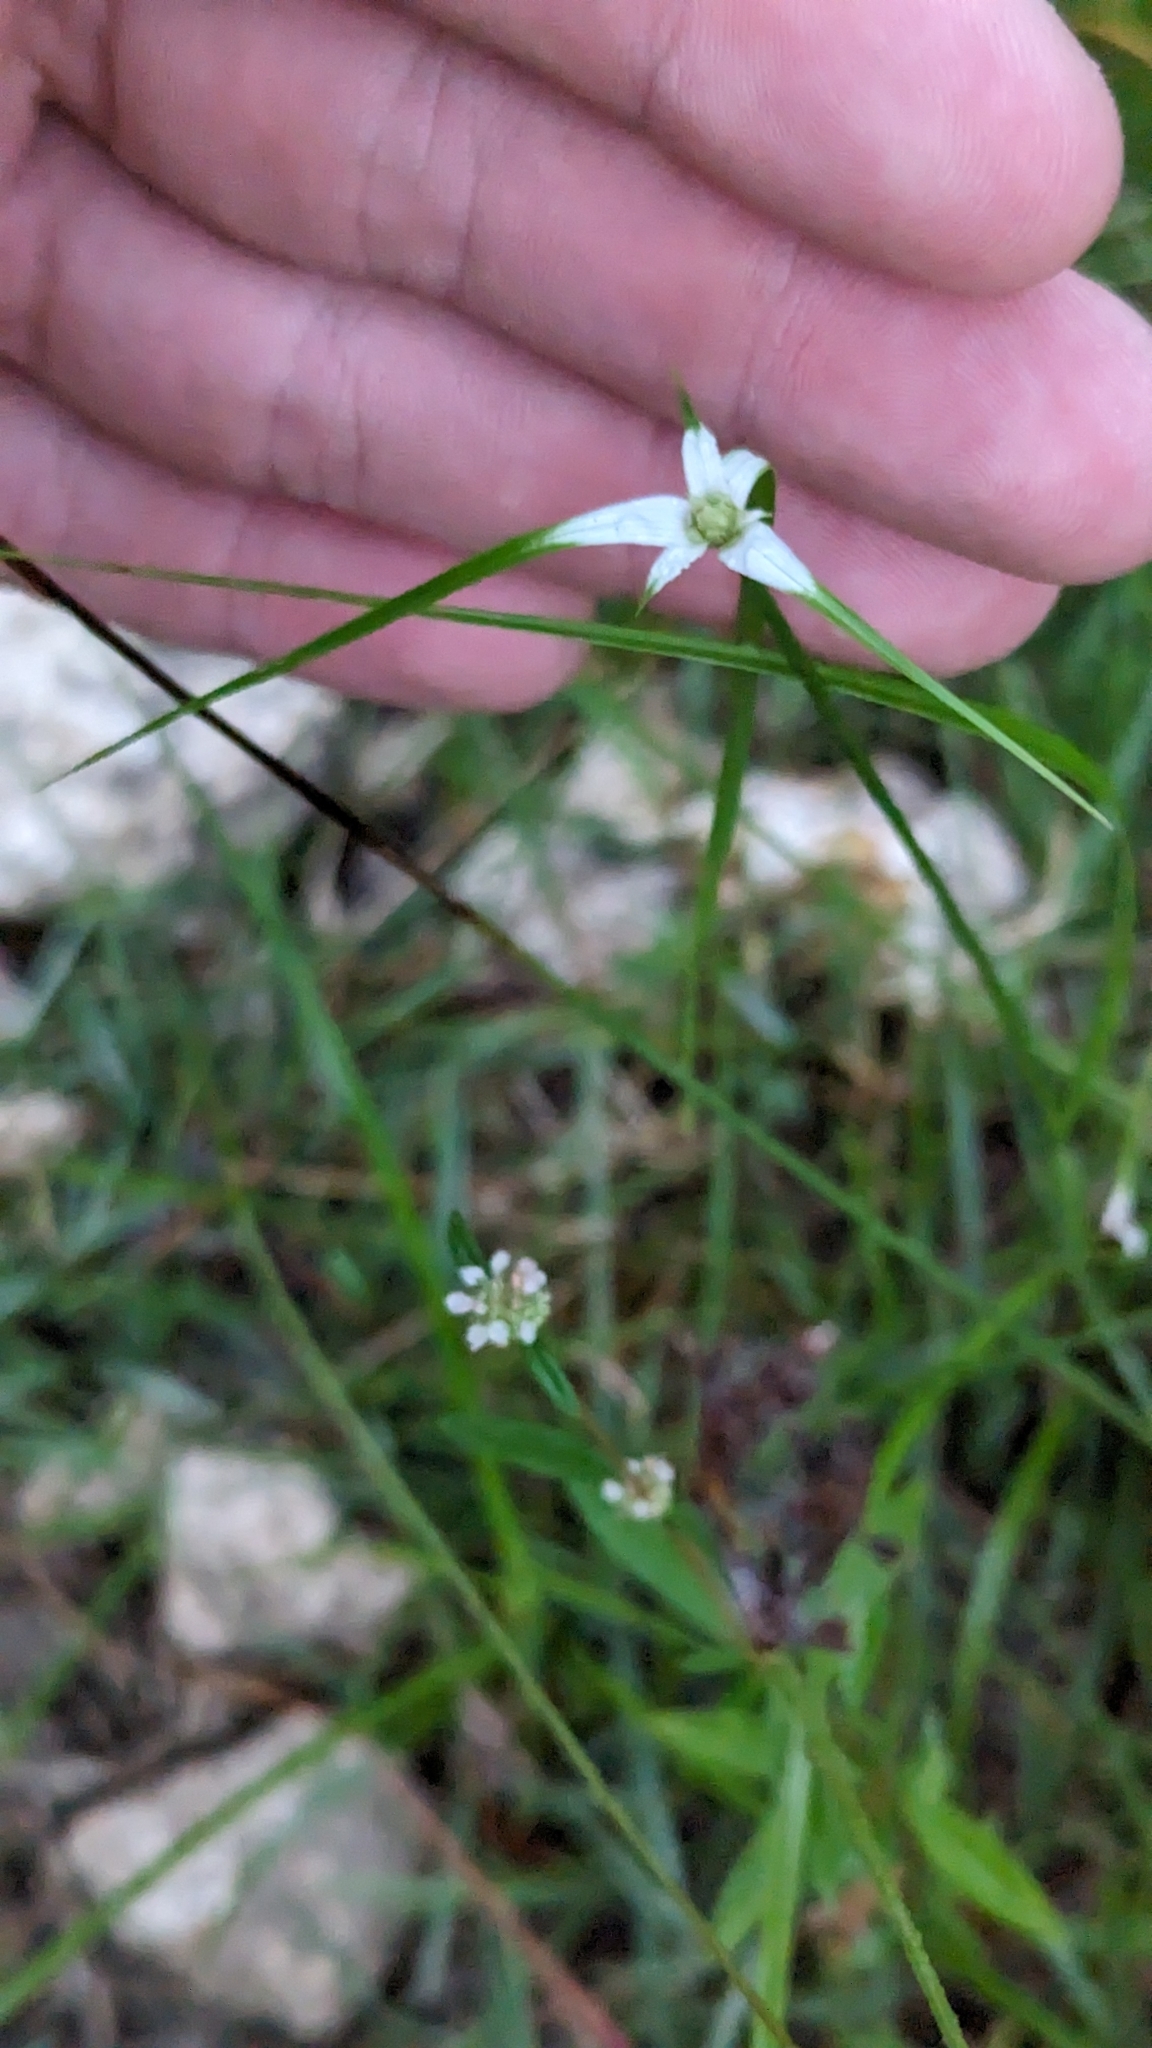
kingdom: Plantae
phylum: Tracheophyta
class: Liliopsida
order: Poales
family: Cyperaceae
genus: Rhynchospora
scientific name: Rhynchospora colorata
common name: Star sedge
